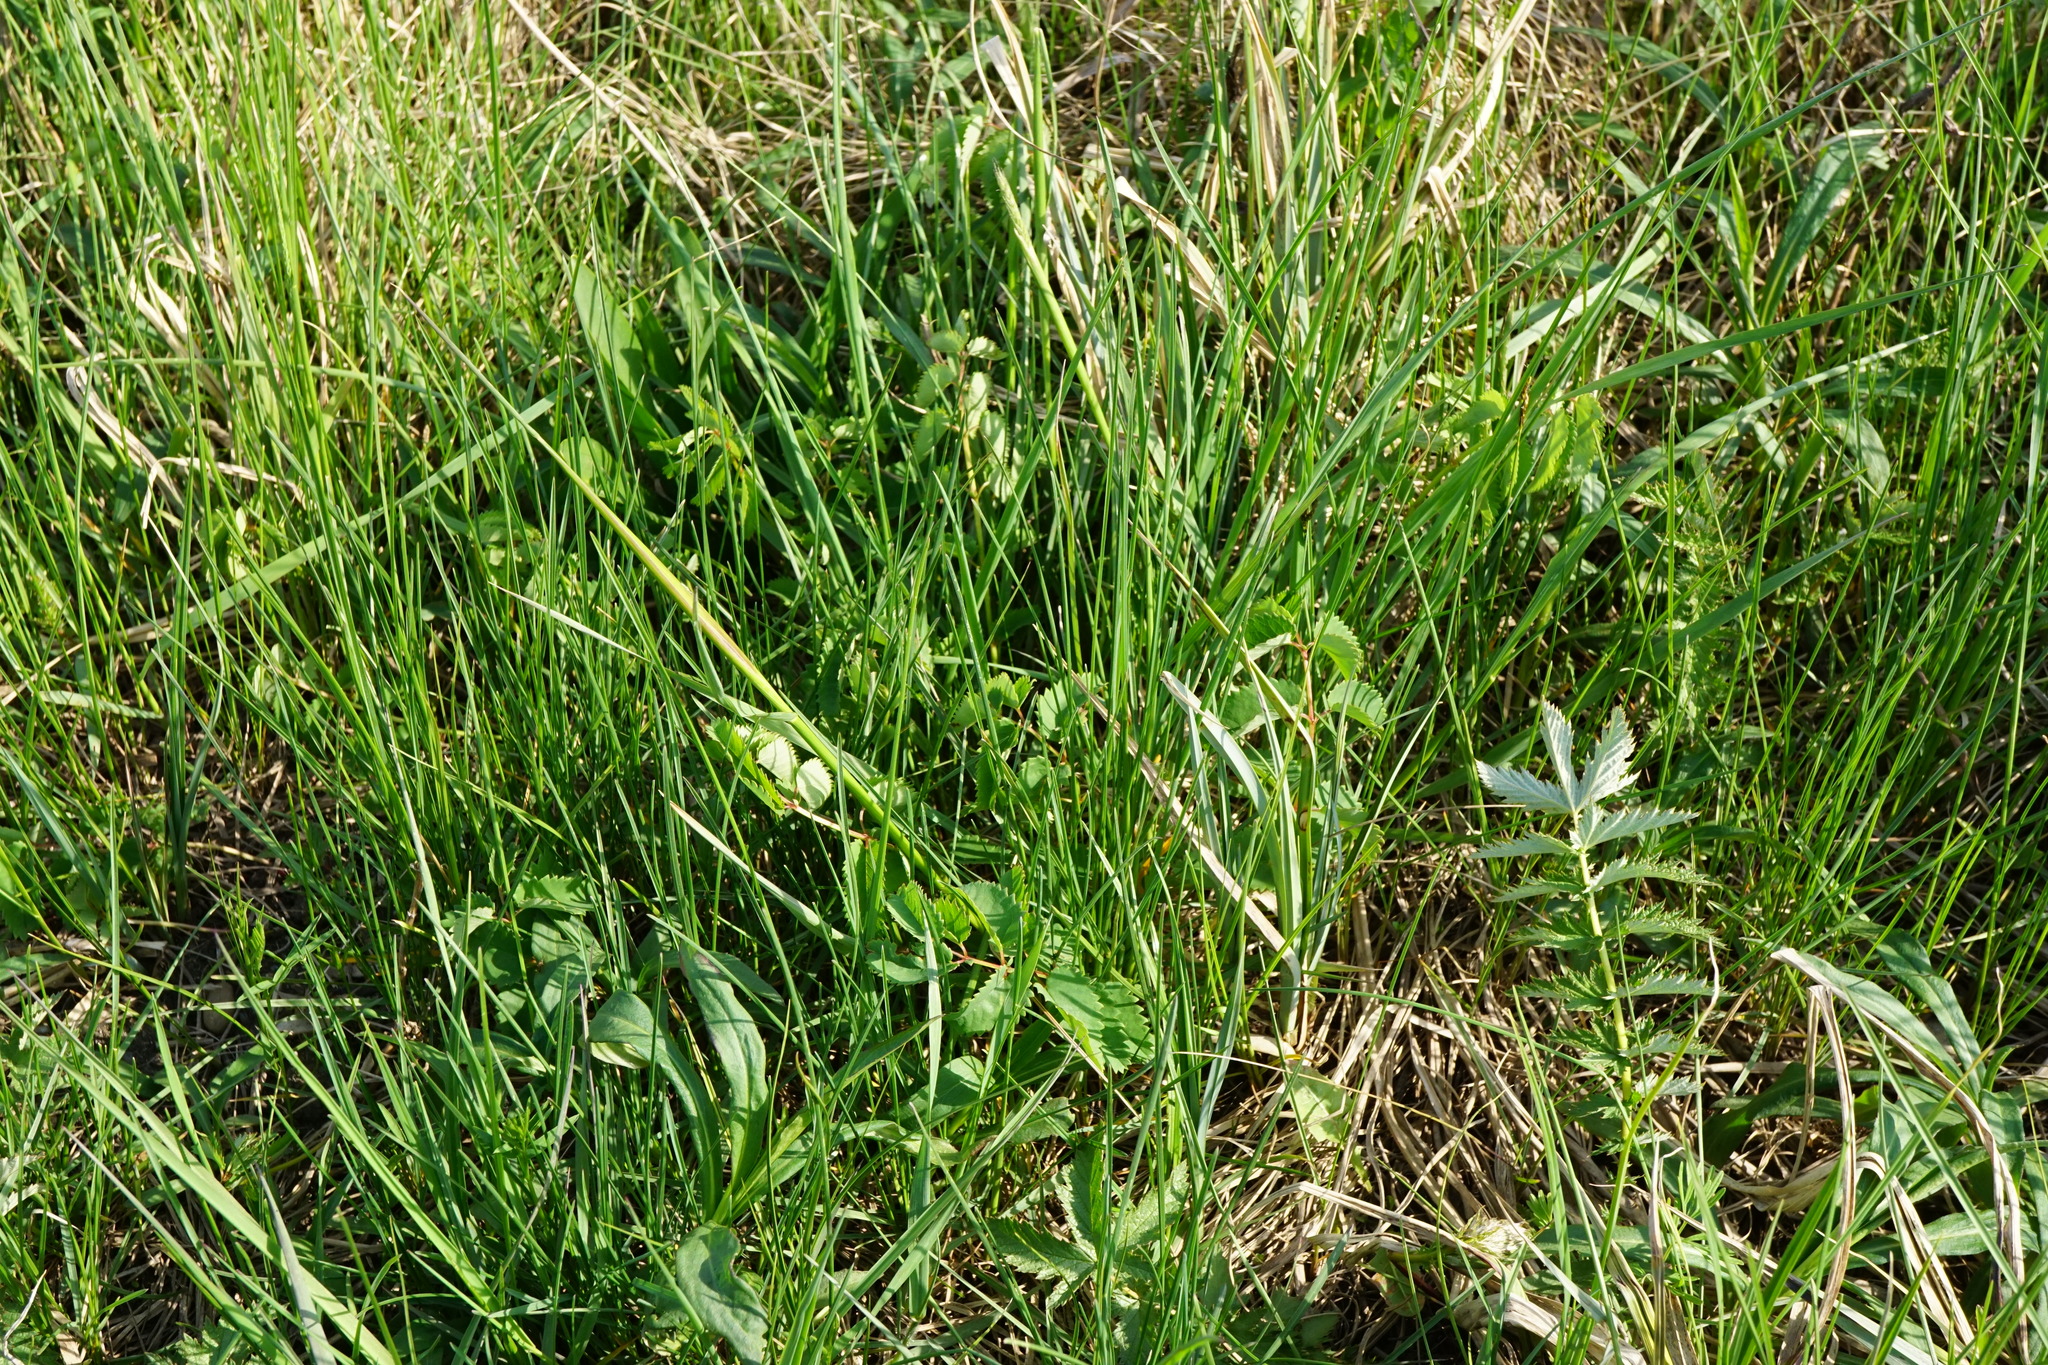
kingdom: Plantae
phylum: Tracheophyta
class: Magnoliopsida
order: Rosales
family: Rosaceae
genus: Sanguisorba
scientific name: Sanguisorba officinalis
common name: Great burnet
